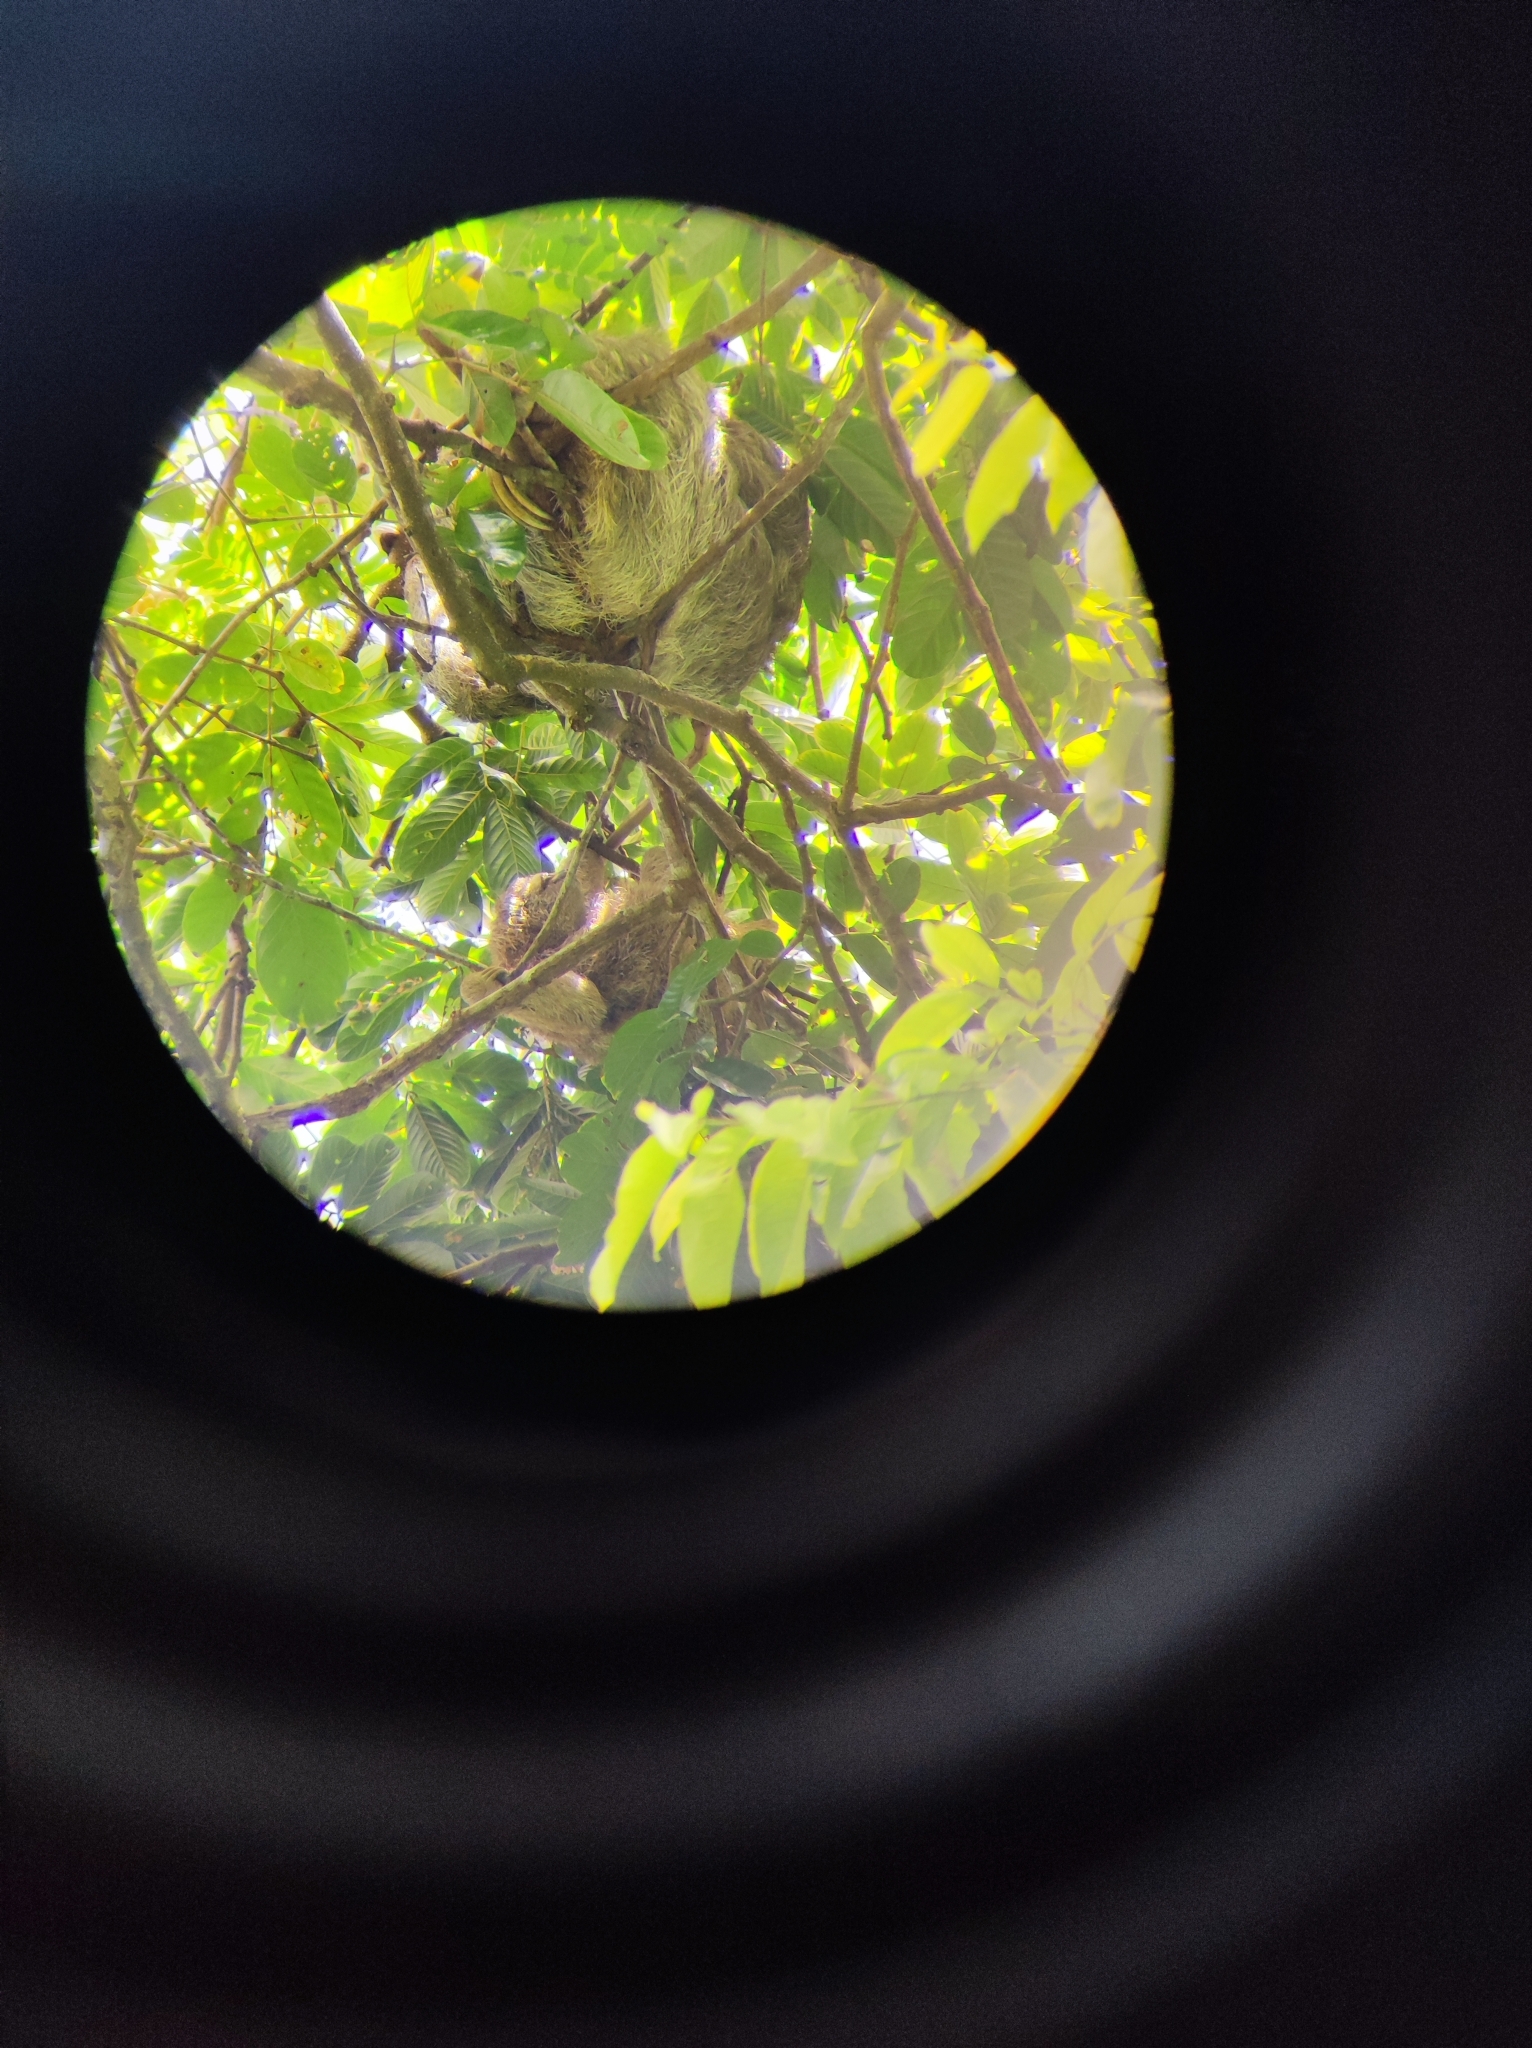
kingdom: Animalia
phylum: Chordata
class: Mammalia
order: Pilosa
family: Bradypodidae
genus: Bradypus
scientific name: Bradypus variegatus
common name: Brown-throated three-toed sloth
